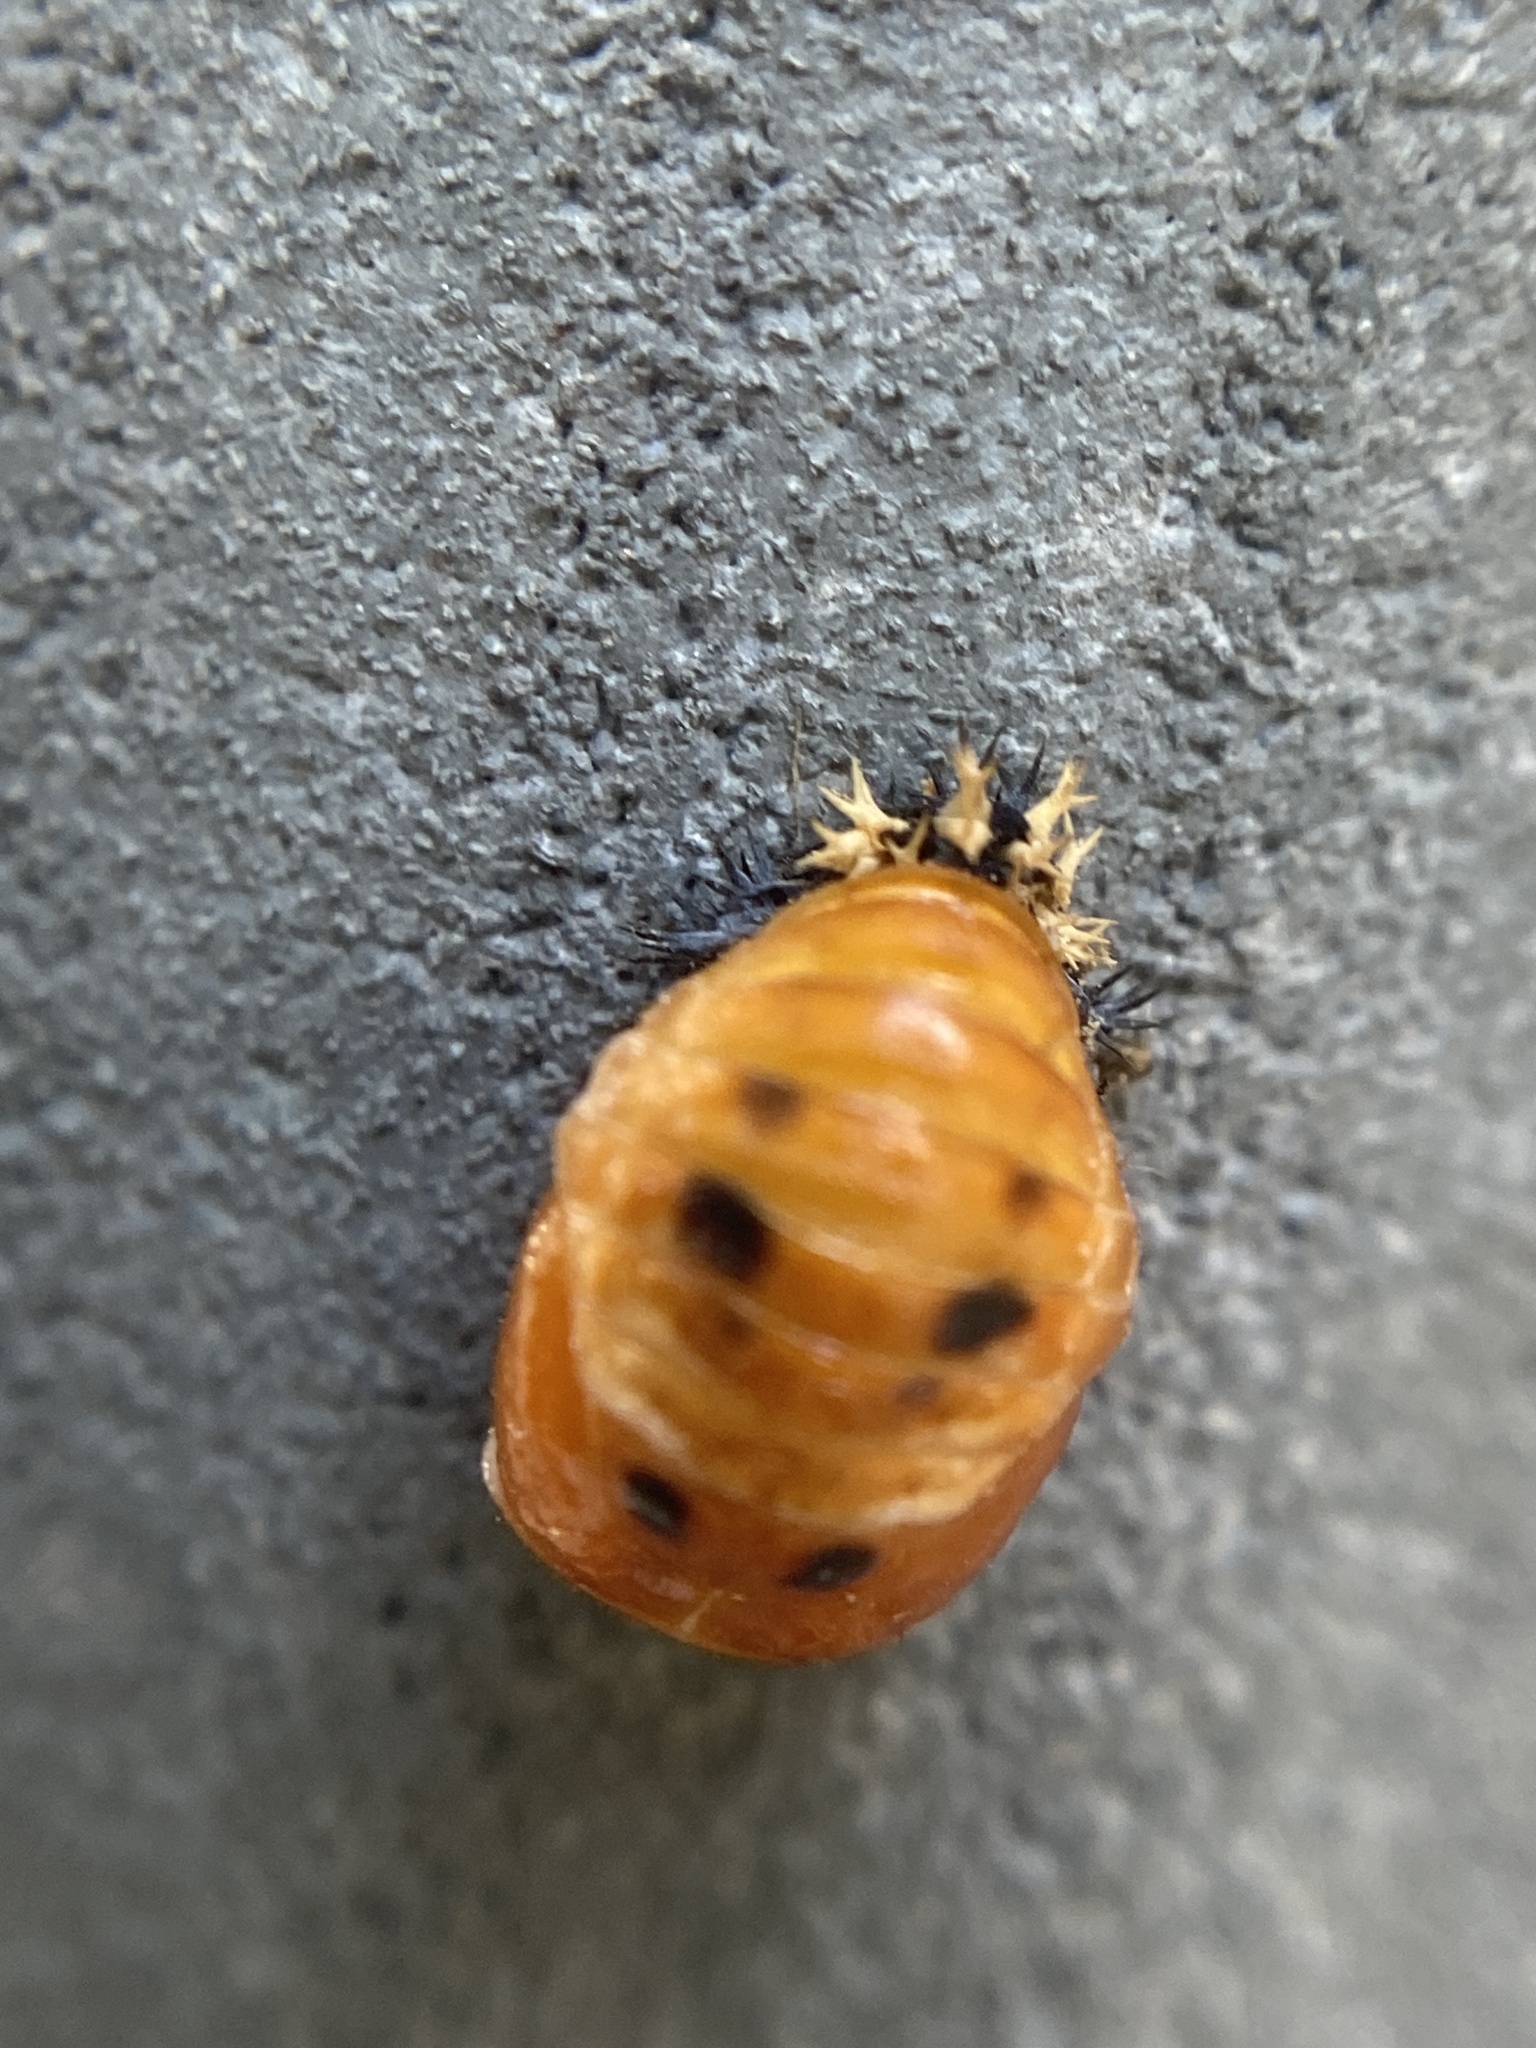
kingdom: Animalia
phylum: Arthropoda
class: Insecta
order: Coleoptera
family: Coccinellidae
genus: Harmonia
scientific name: Harmonia axyridis
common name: Harlequin ladybird
